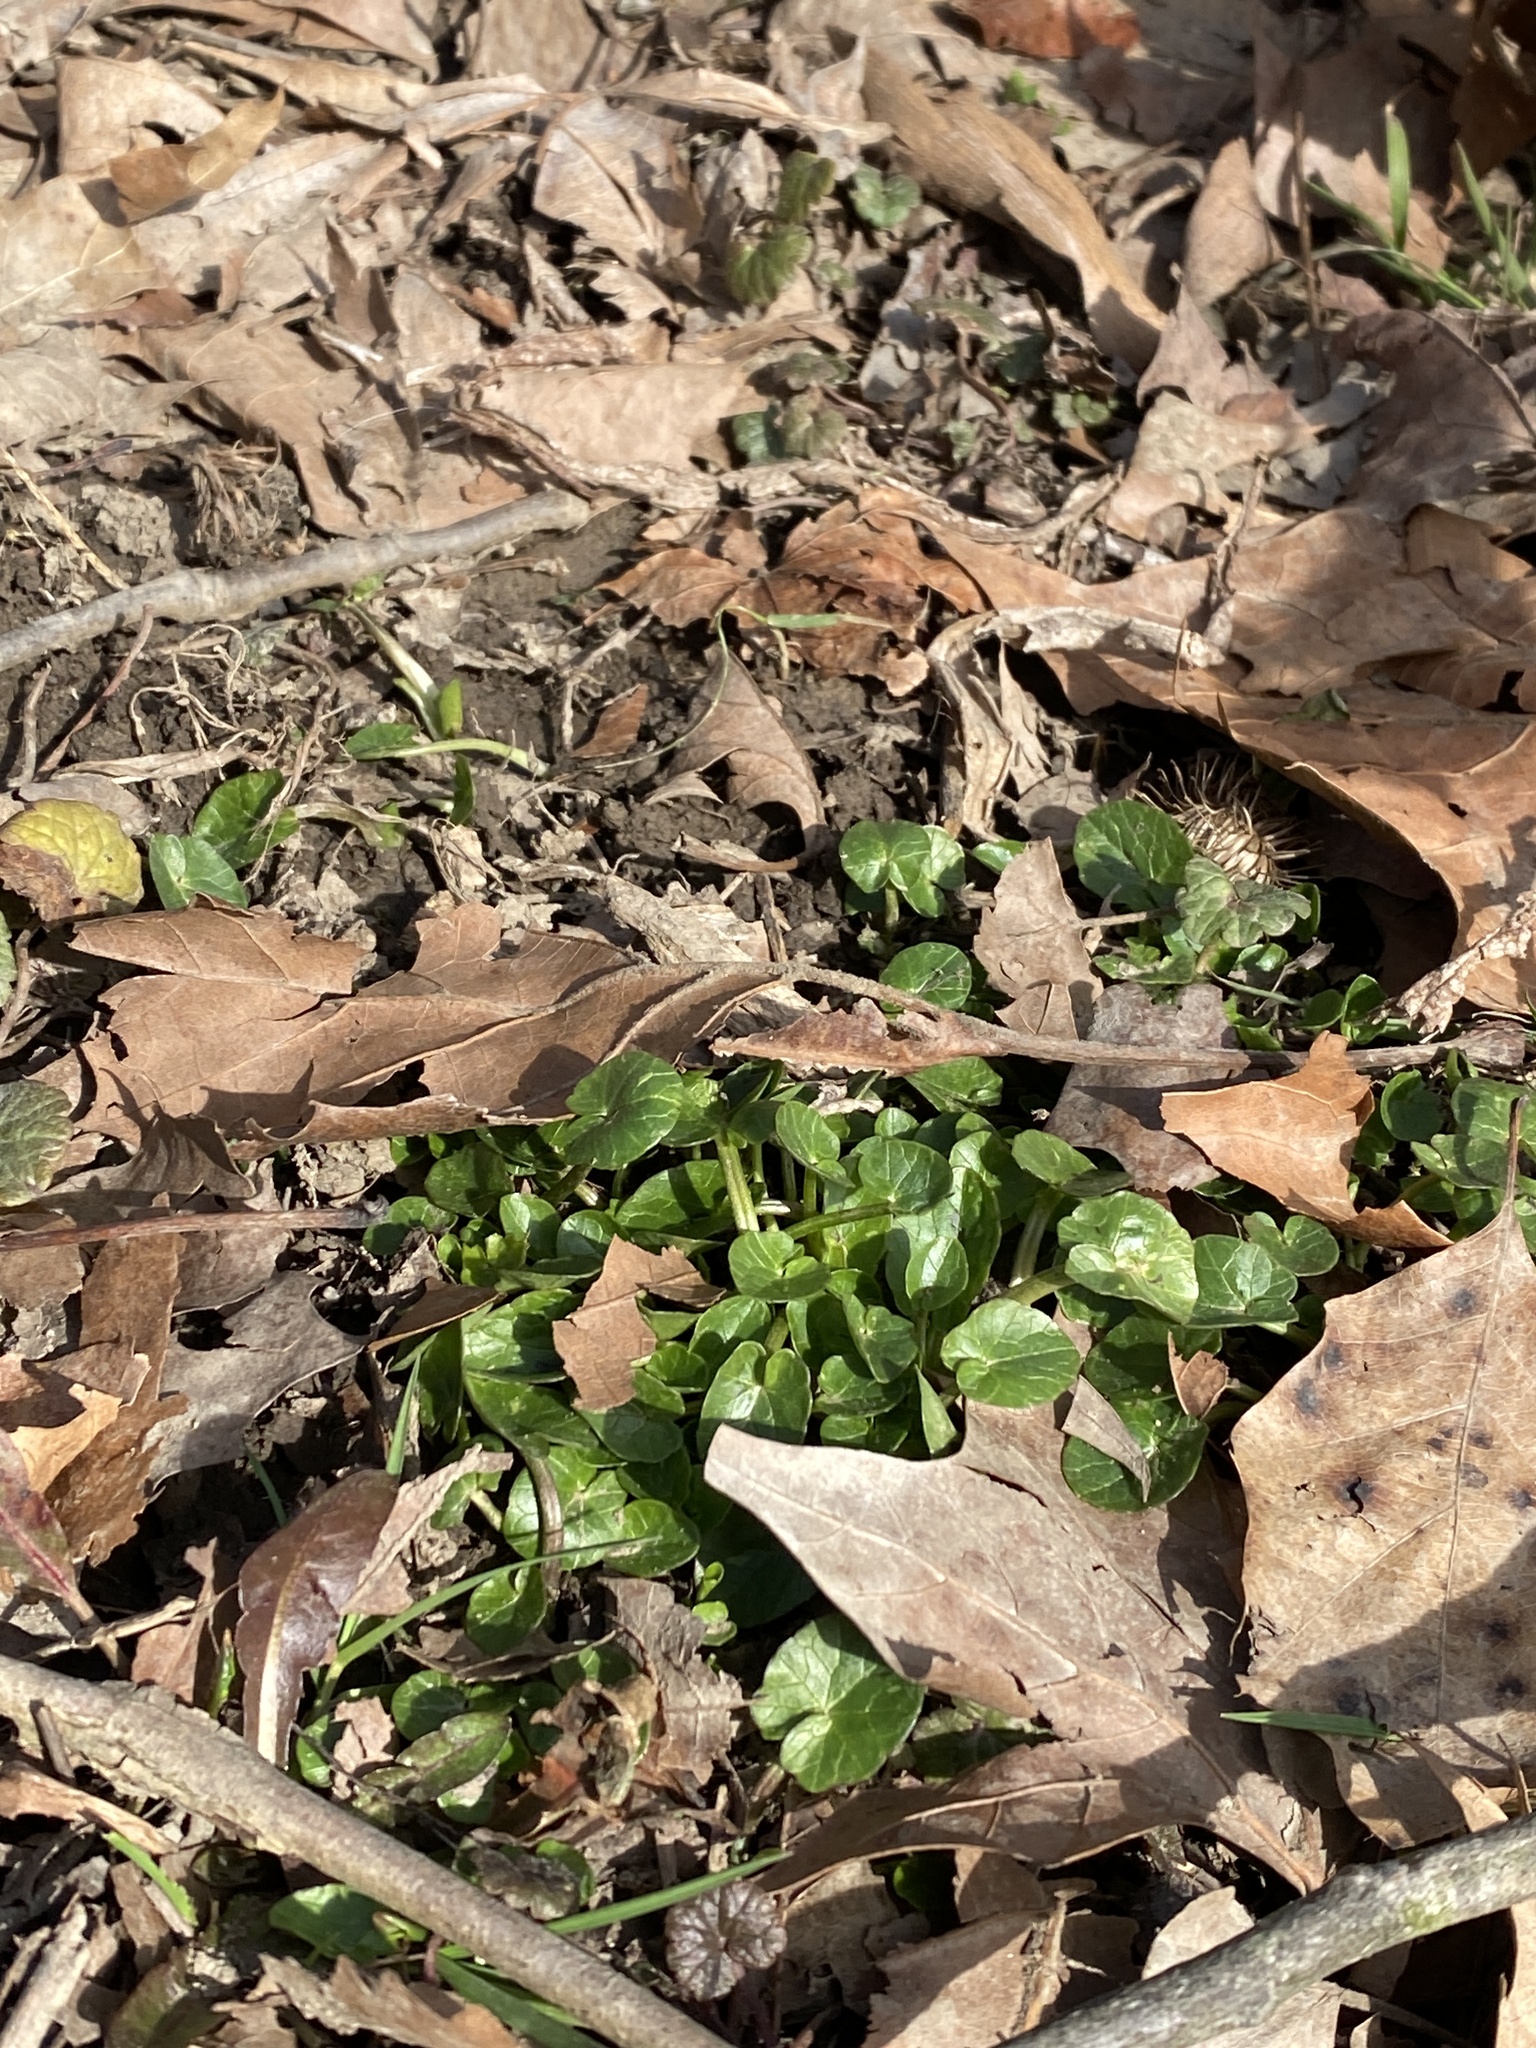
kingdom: Plantae
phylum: Tracheophyta
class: Magnoliopsida
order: Ranunculales
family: Ranunculaceae
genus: Ficaria
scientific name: Ficaria verna
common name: Lesser celandine
